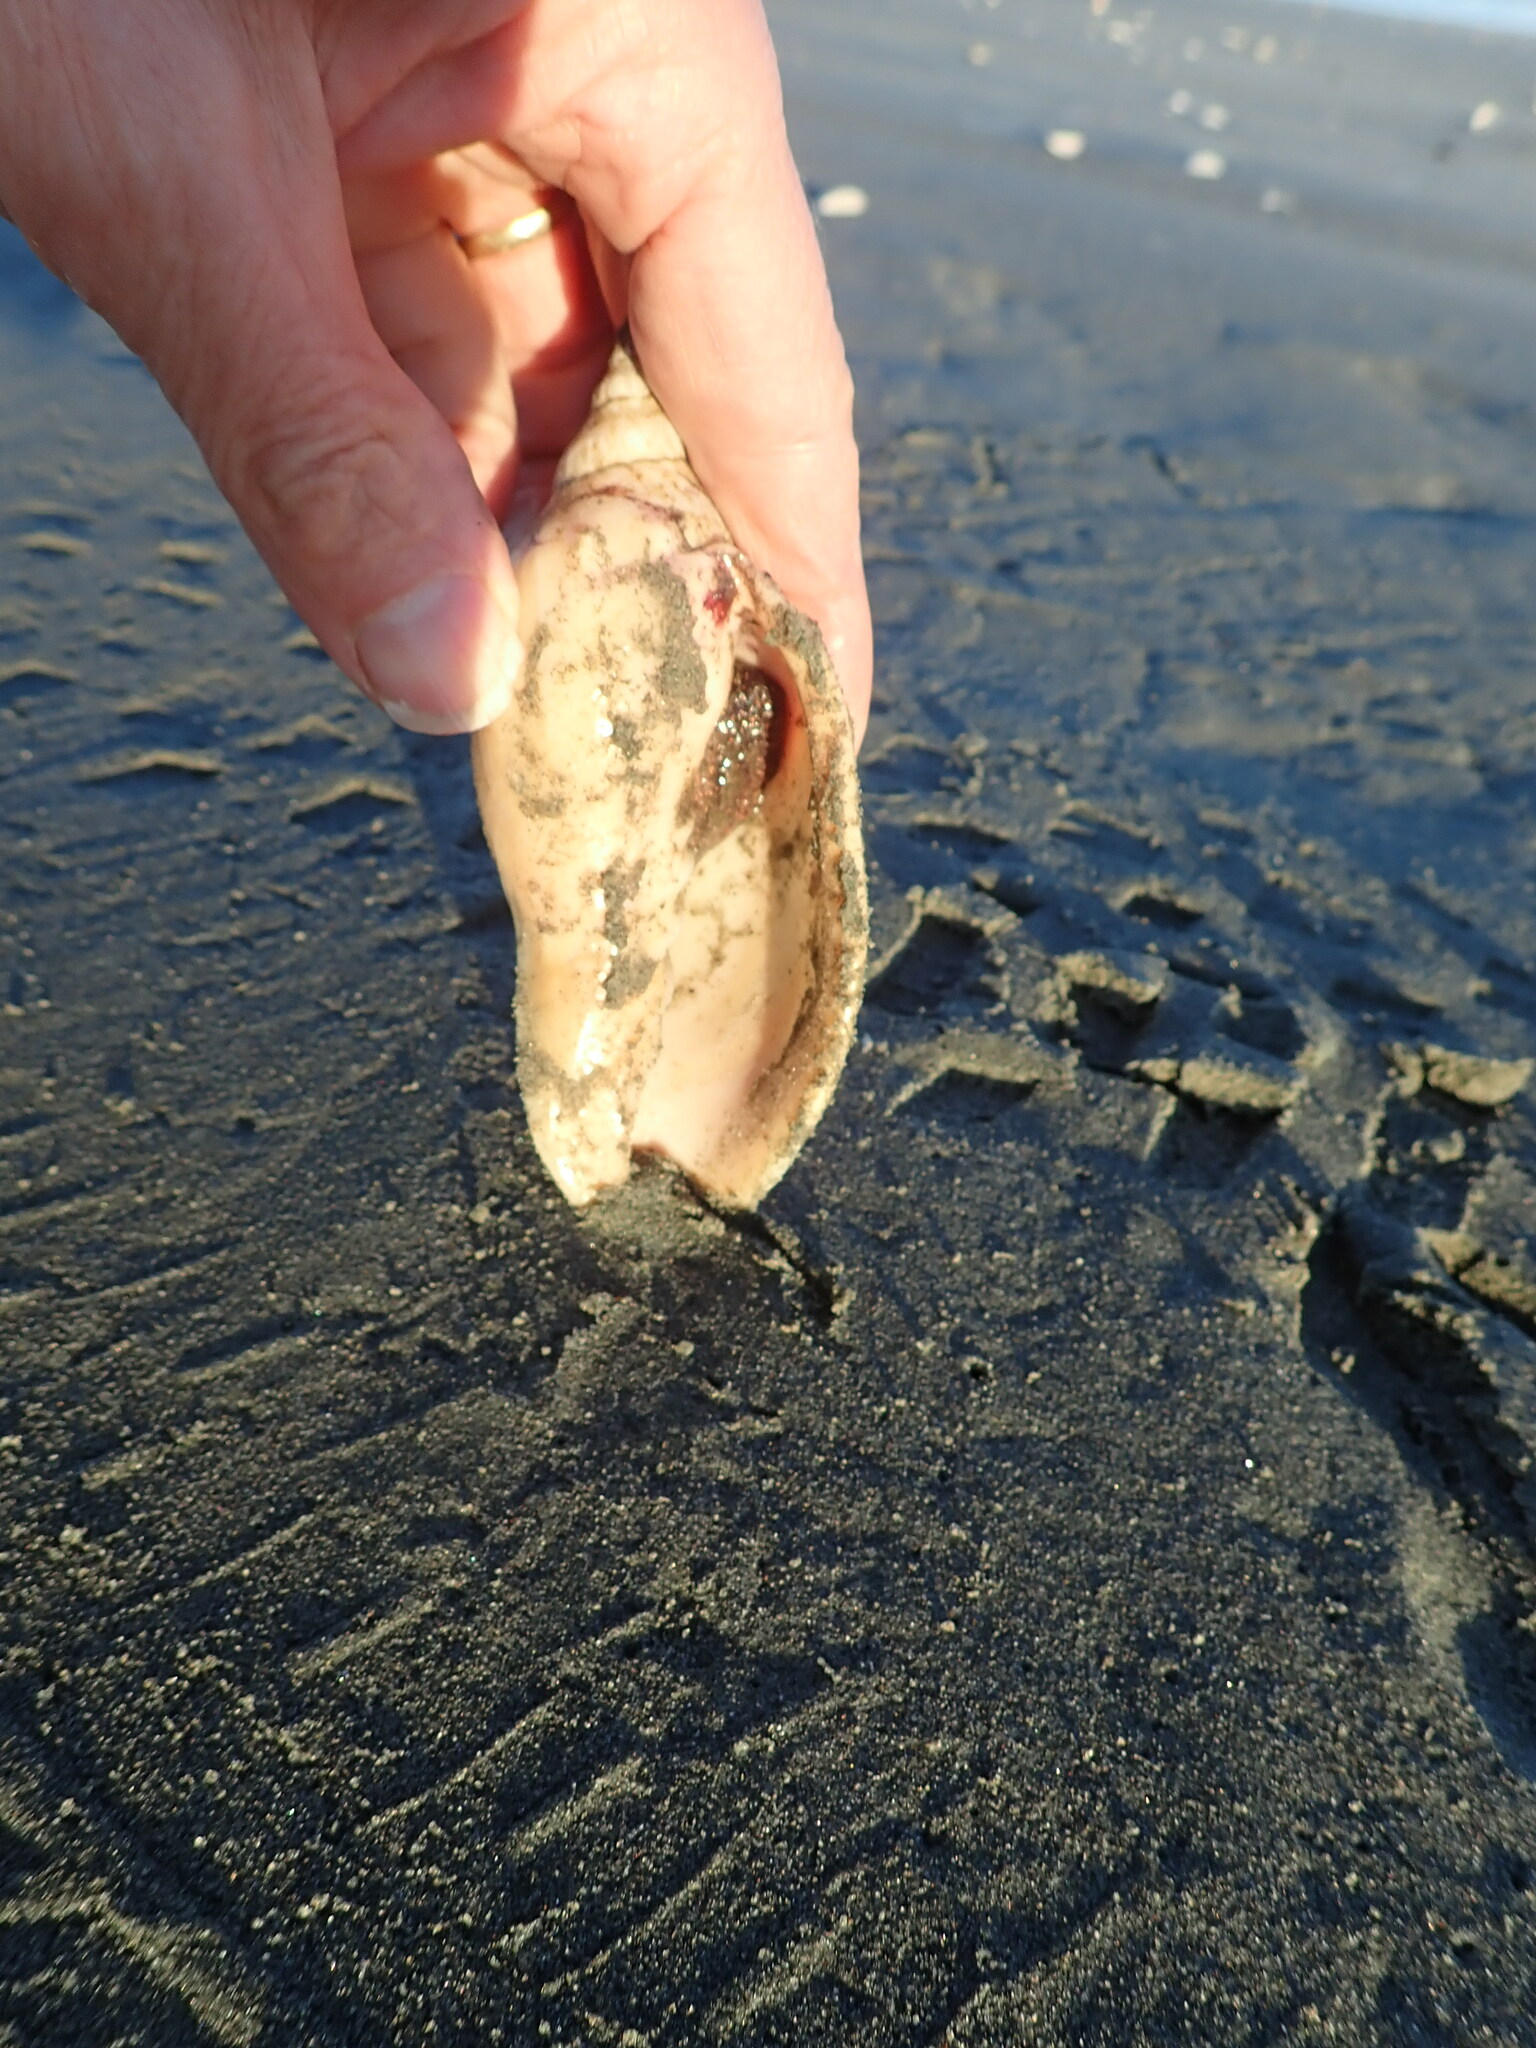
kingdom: Animalia
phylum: Mollusca
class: Gastropoda
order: Neogastropoda
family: Volutidae
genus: Alcithoe
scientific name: Alcithoe arabica
